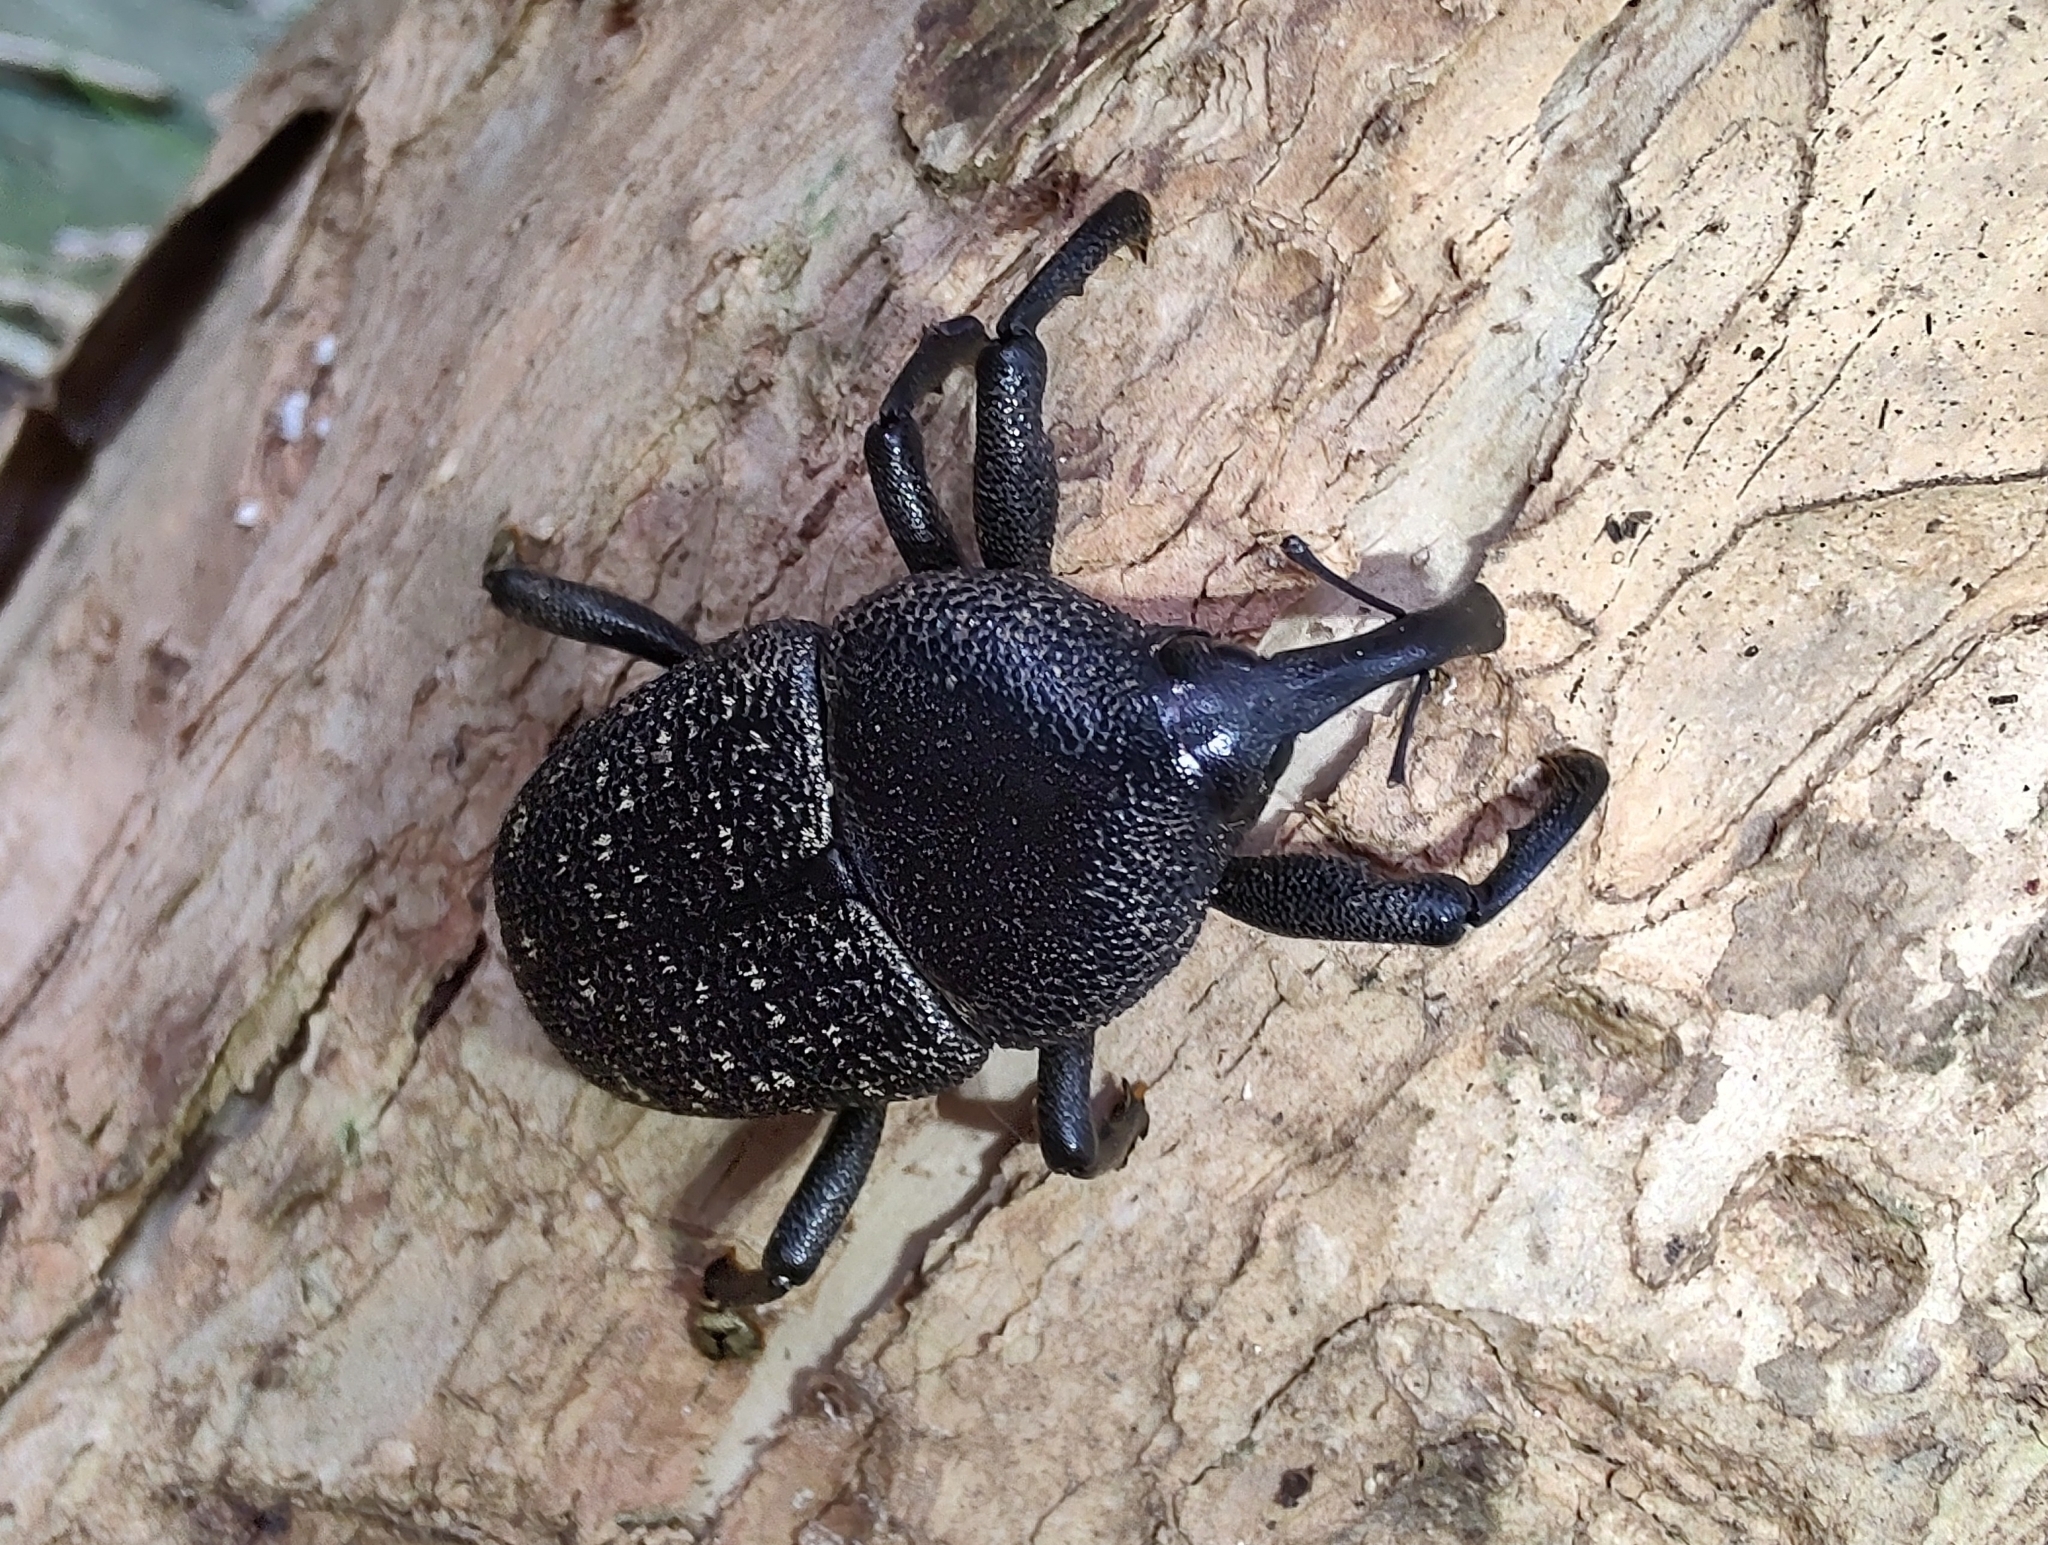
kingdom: Animalia
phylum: Arthropoda
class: Insecta
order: Coleoptera
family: Curculionidae
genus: Homalinotus
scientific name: Homalinotus coriaceus
